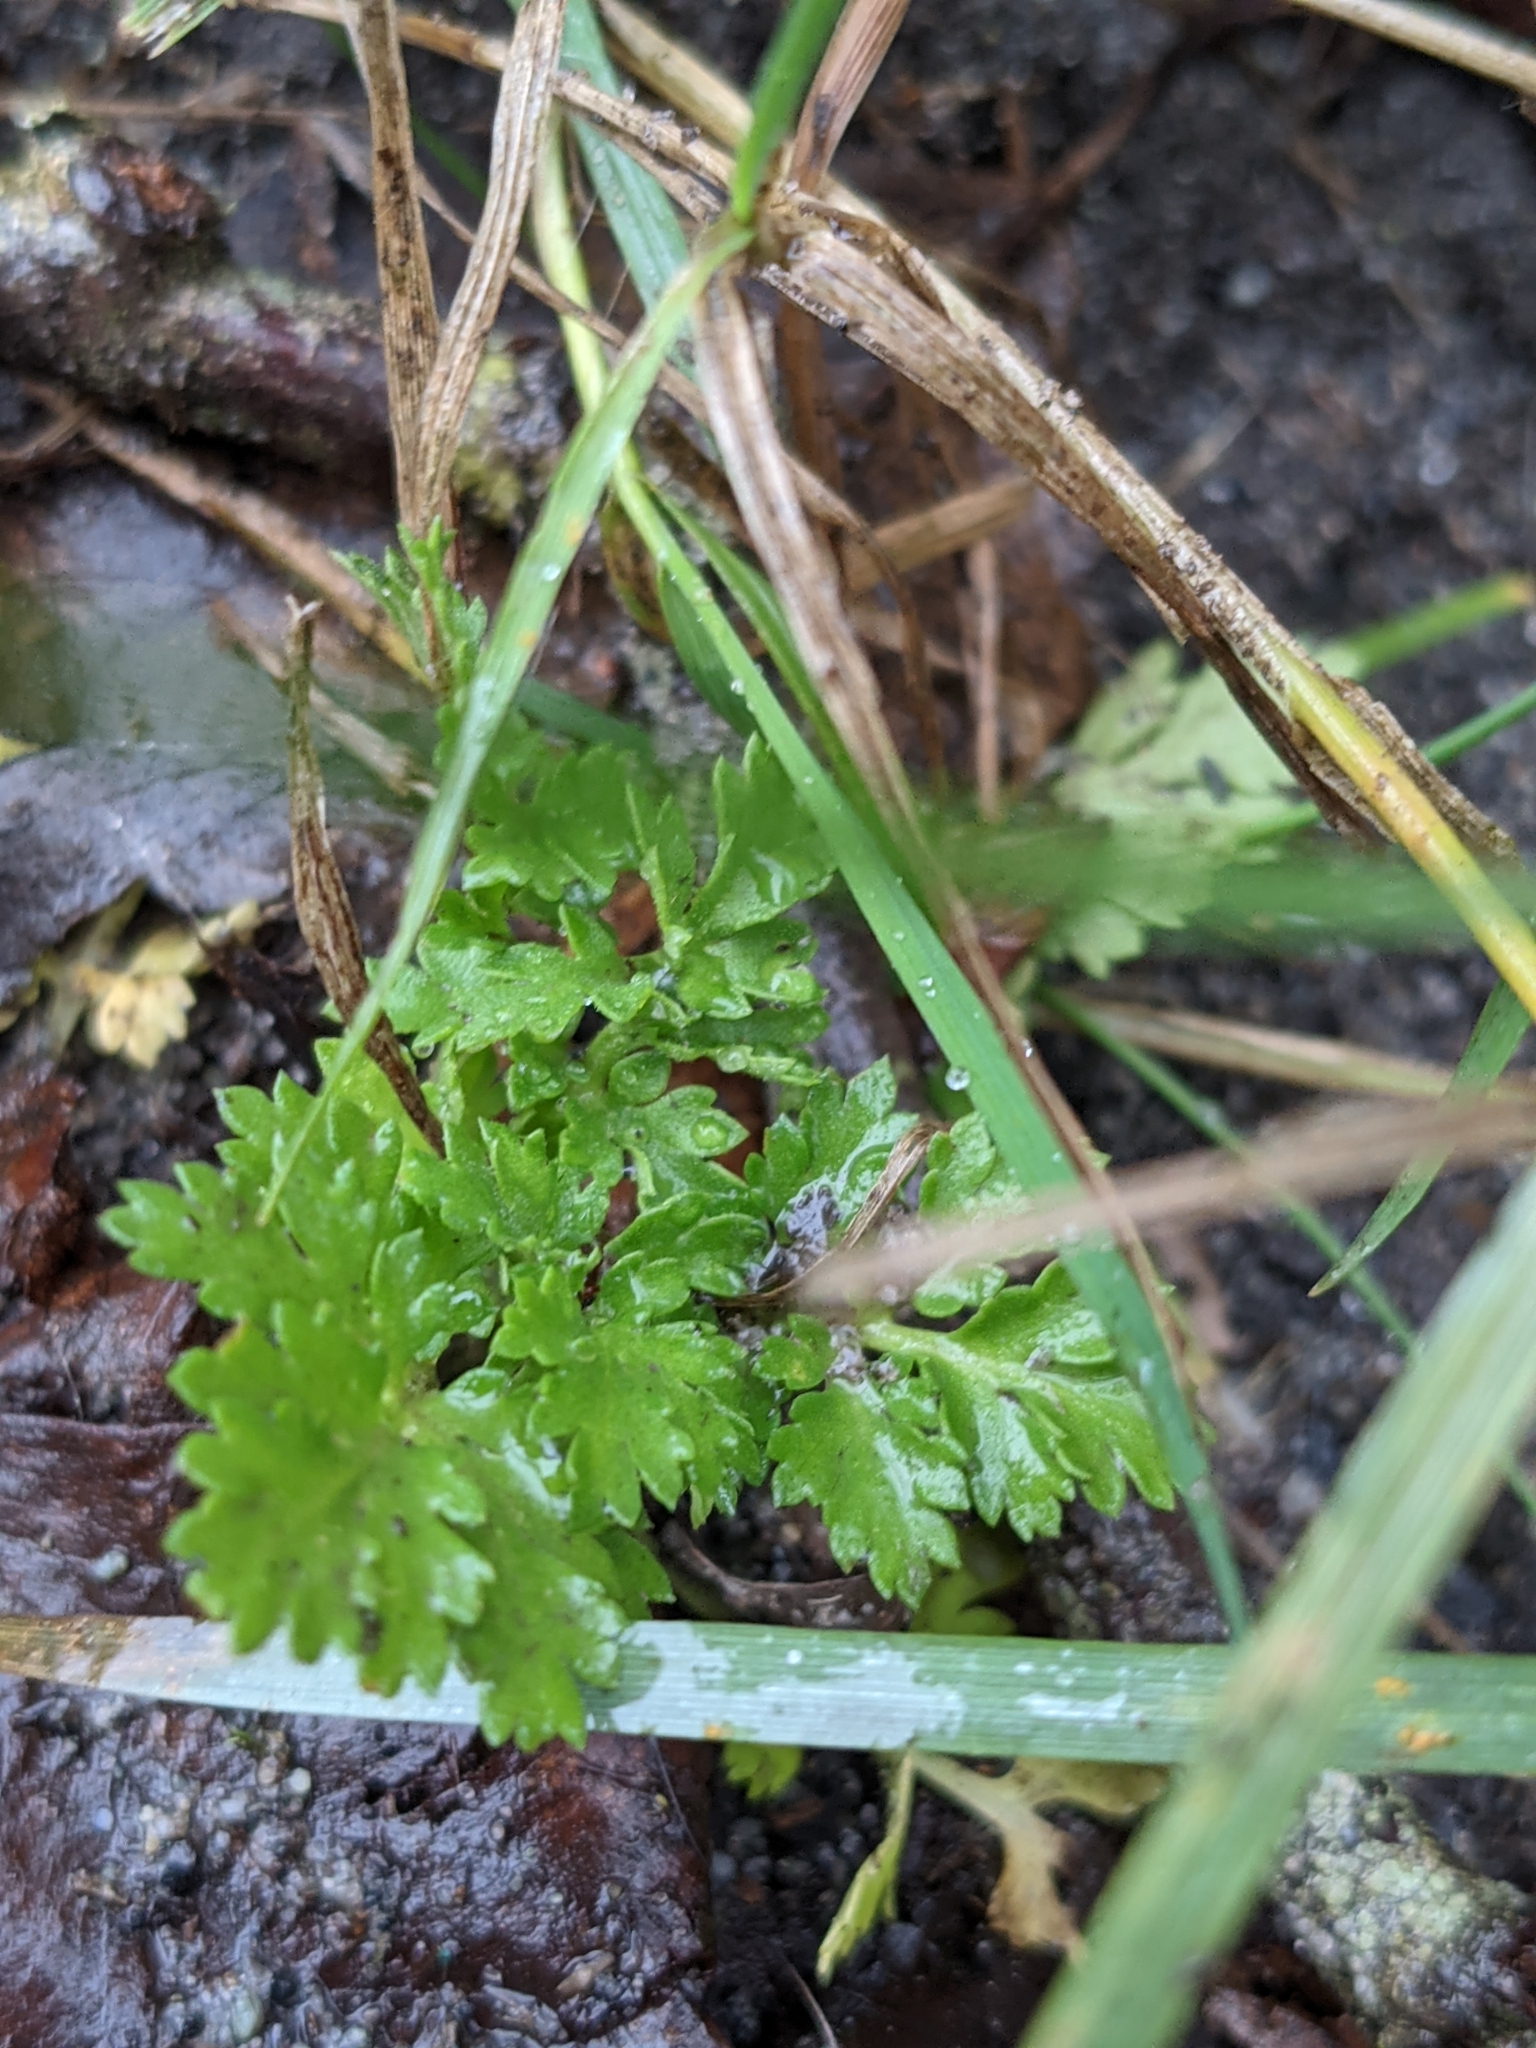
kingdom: Plantae
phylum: Tracheophyta
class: Magnoliopsida
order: Asterales
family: Asteraceae
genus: Tanacetum
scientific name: Tanacetum parthenium
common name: Feverfew
